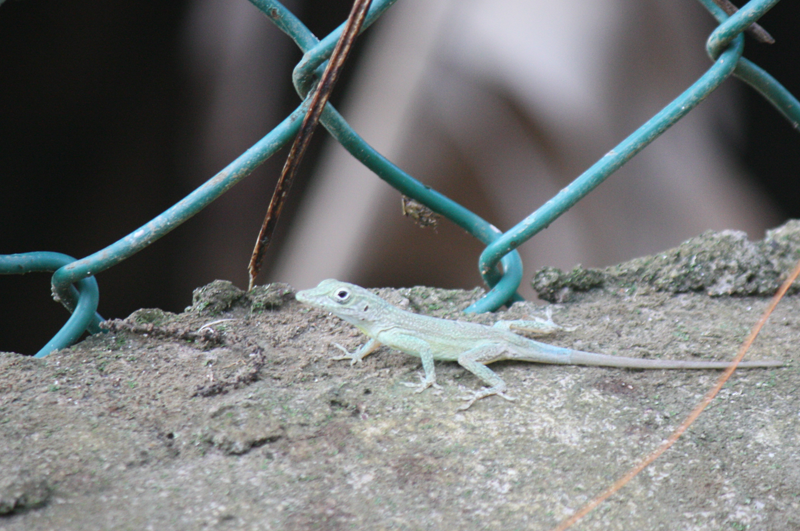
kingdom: Animalia
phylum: Chordata
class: Squamata
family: Dactyloidae
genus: Anolis
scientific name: Anolis grahami
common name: Graham's anole
